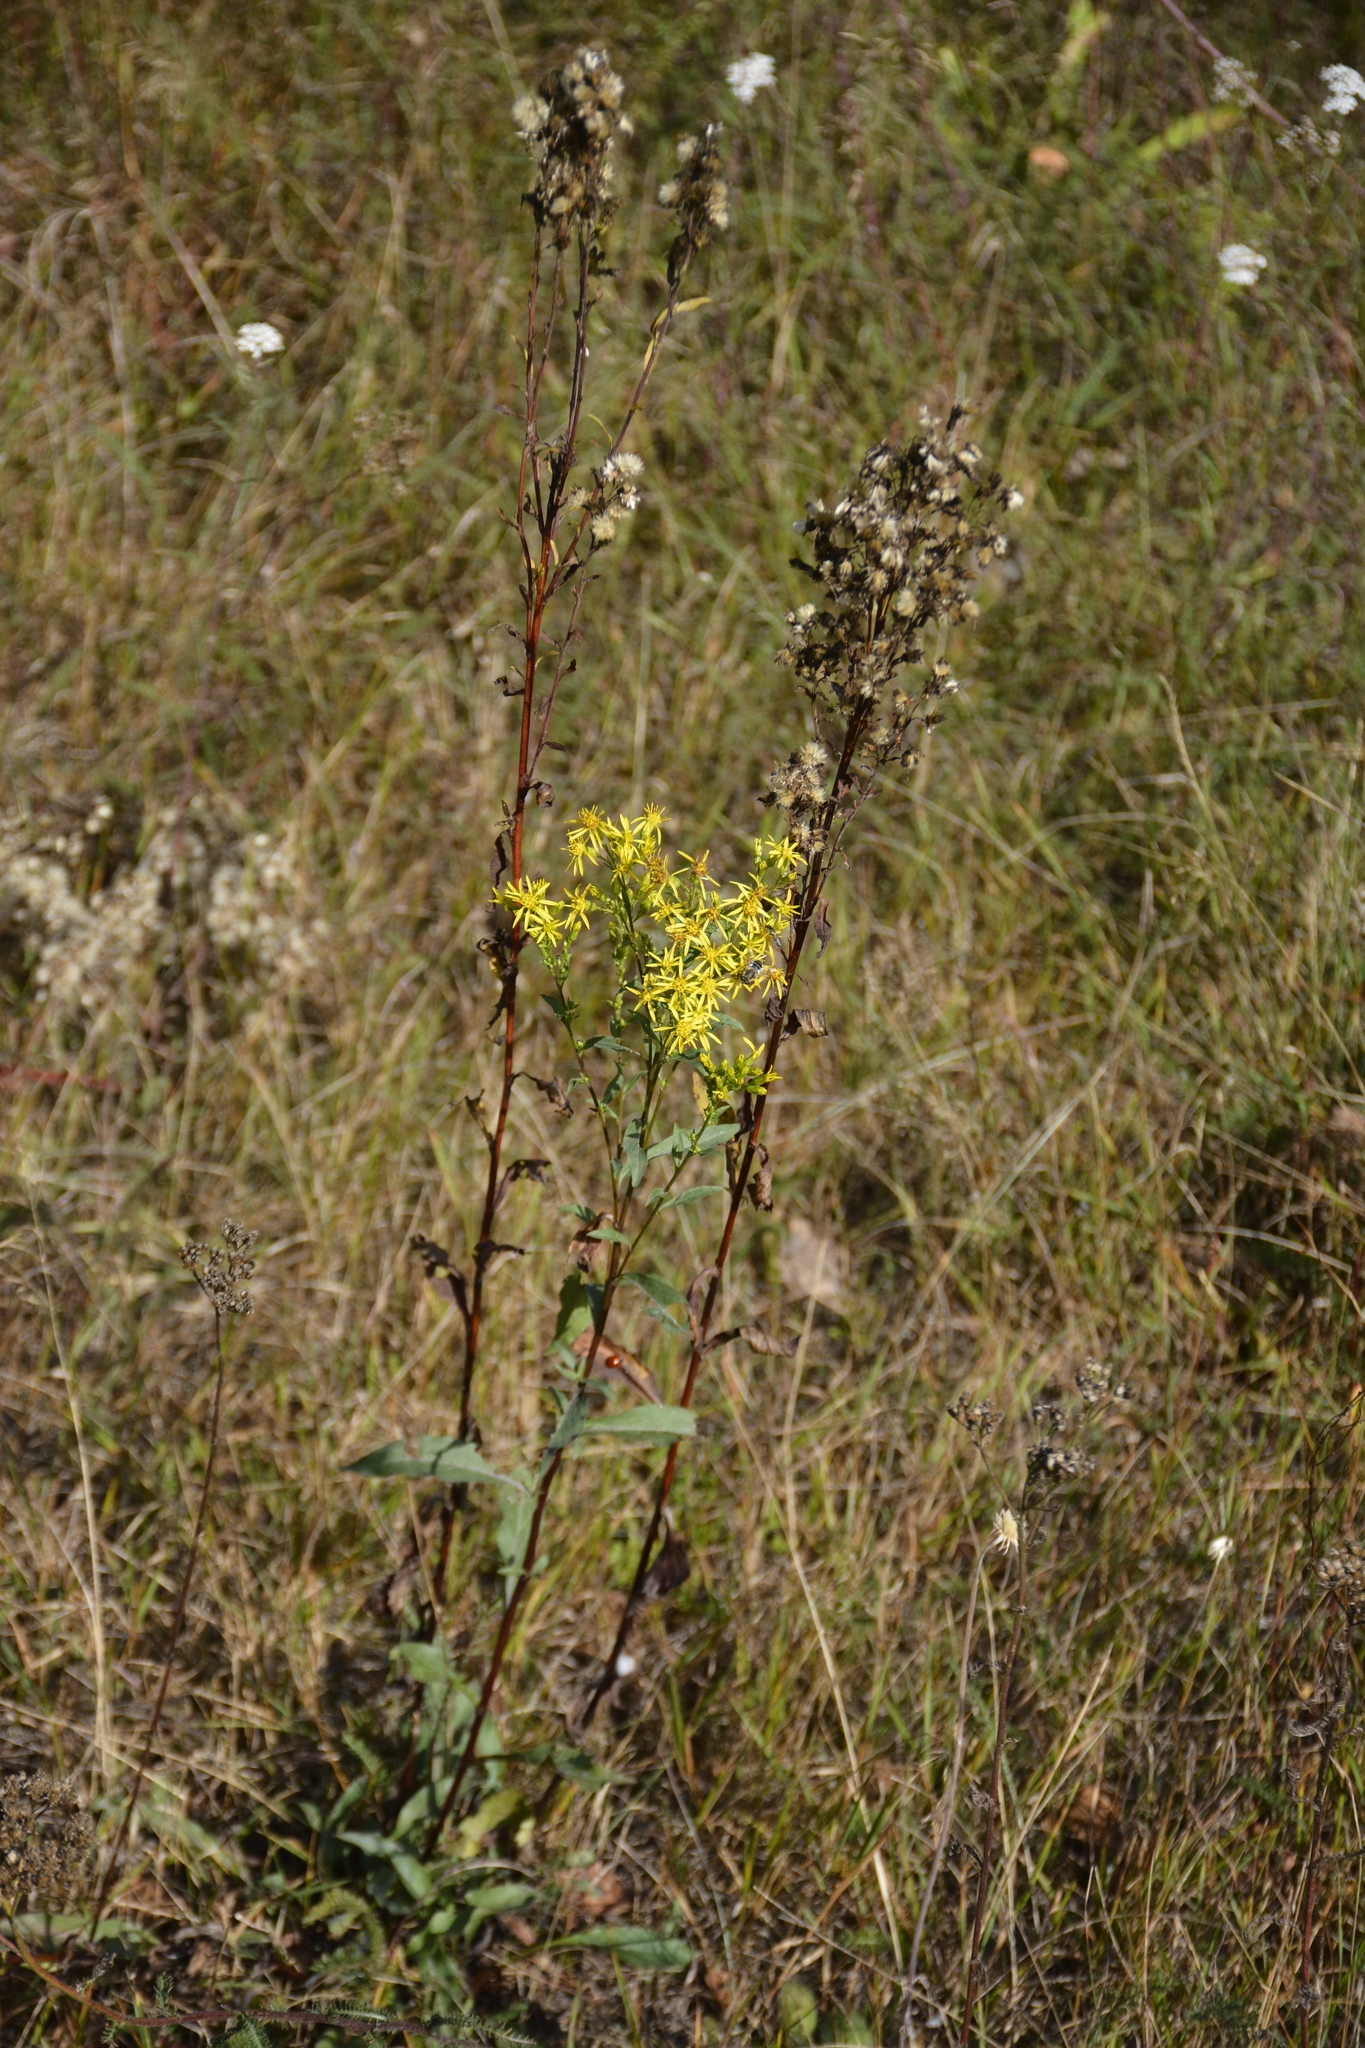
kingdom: Plantae
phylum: Tracheophyta
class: Magnoliopsida
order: Asterales
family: Asteraceae
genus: Solidago
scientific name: Solidago virgaurea
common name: Goldenrod
